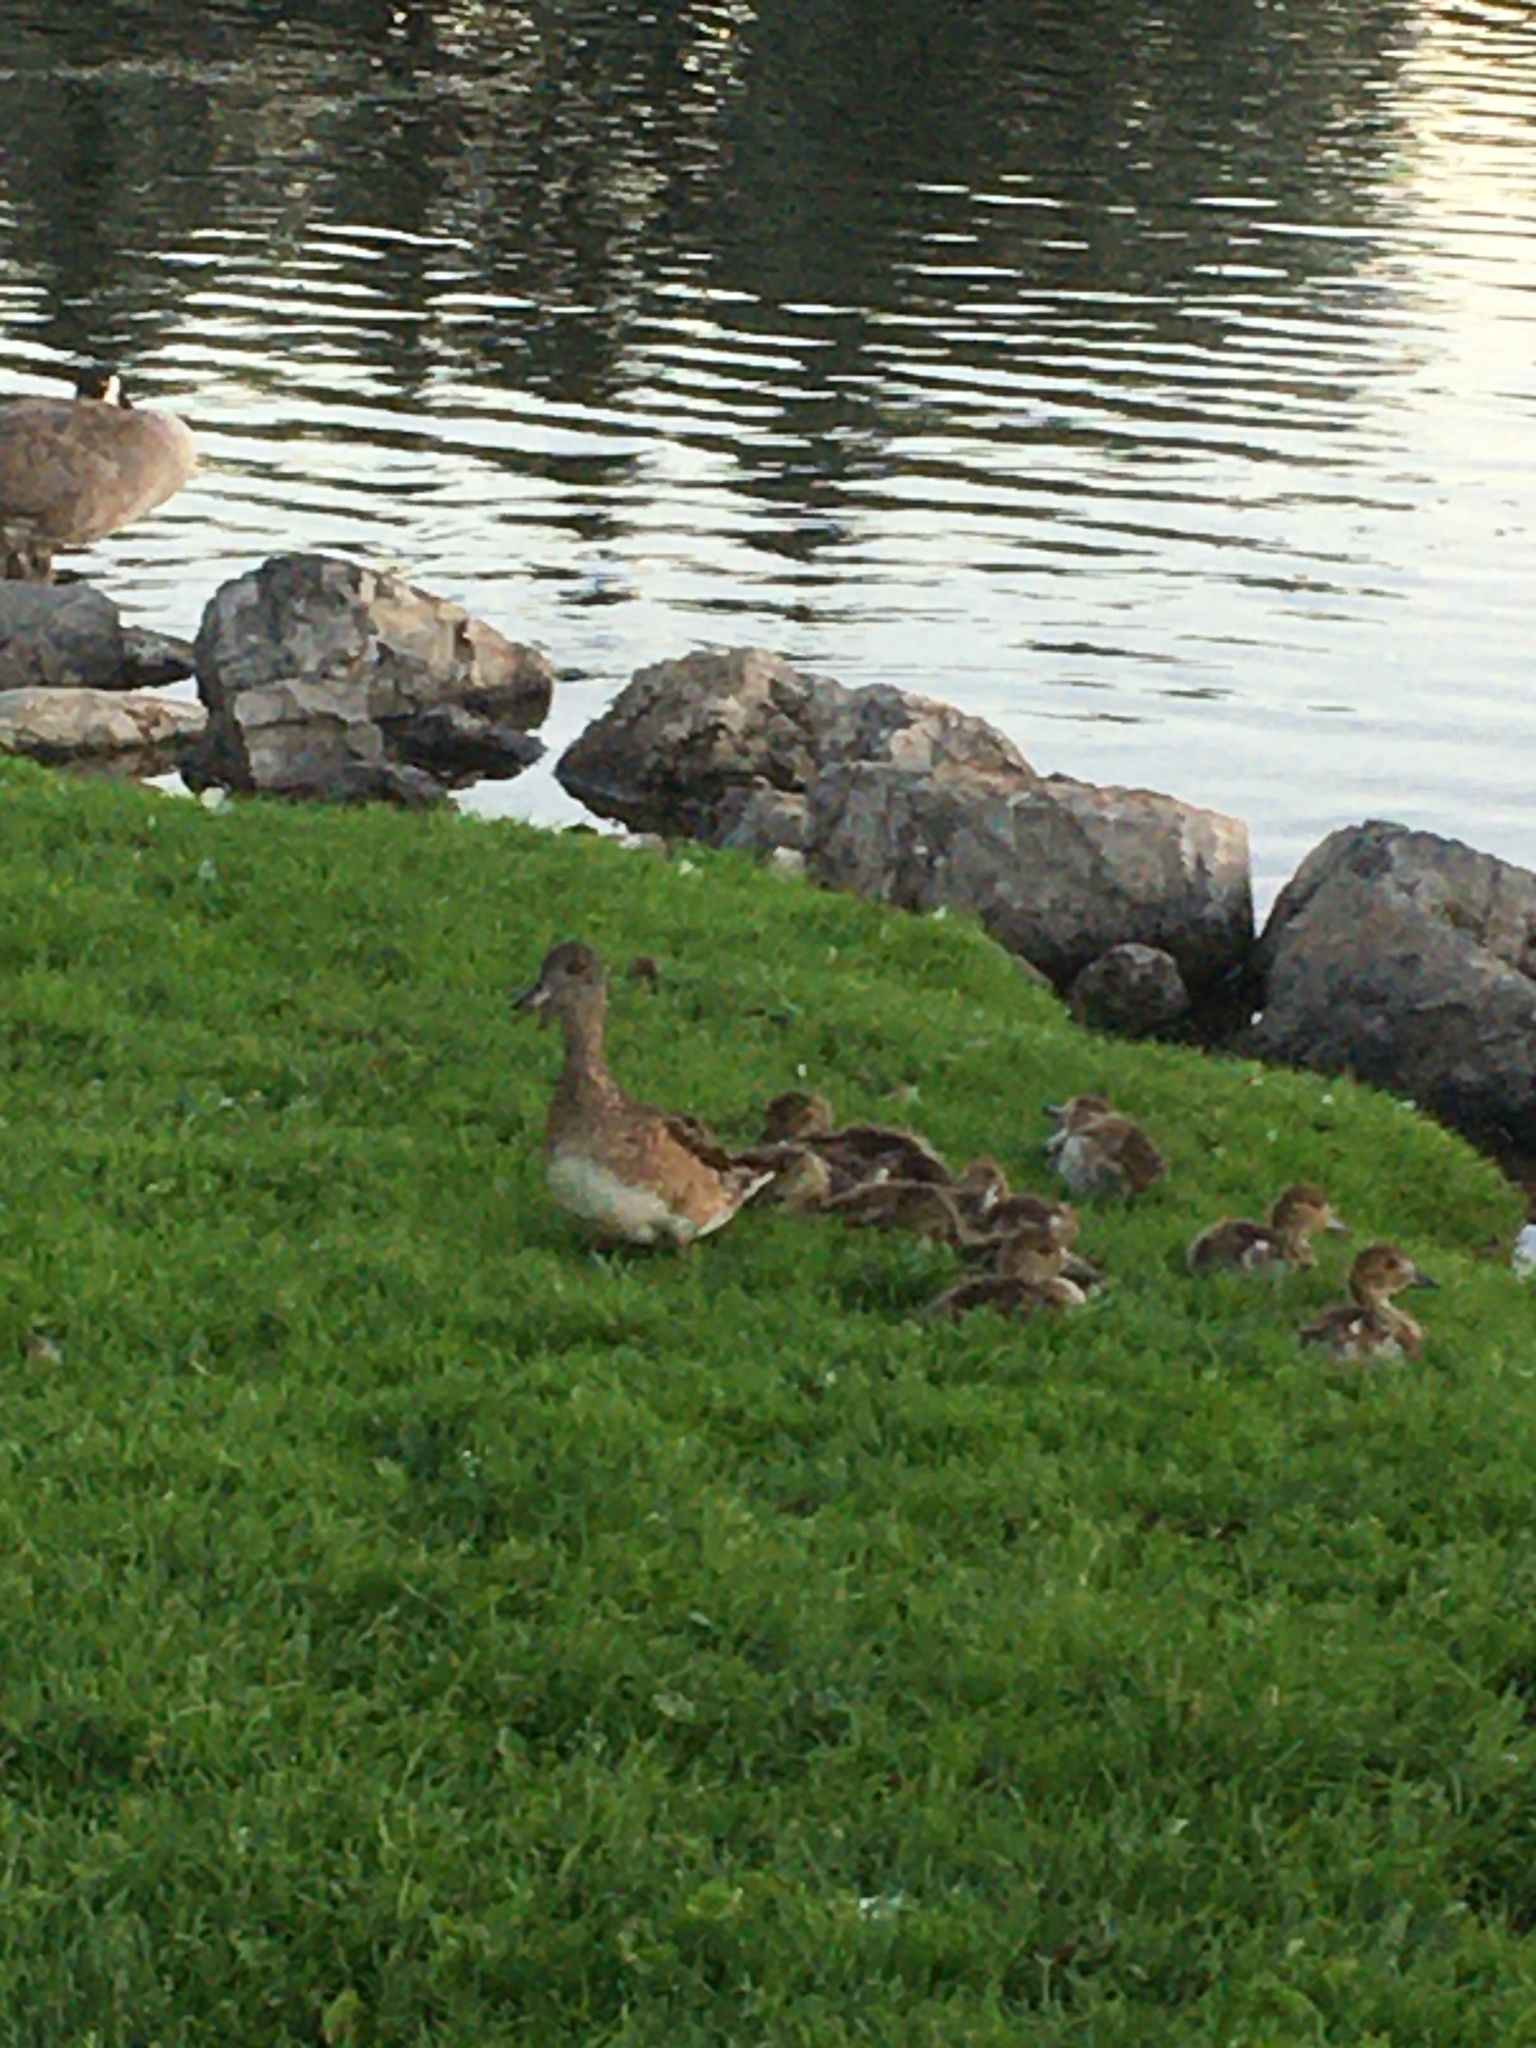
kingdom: Animalia
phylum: Chordata
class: Aves
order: Anseriformes
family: Anatidae
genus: Mareca
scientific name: Mareca americana
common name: American wigeon
